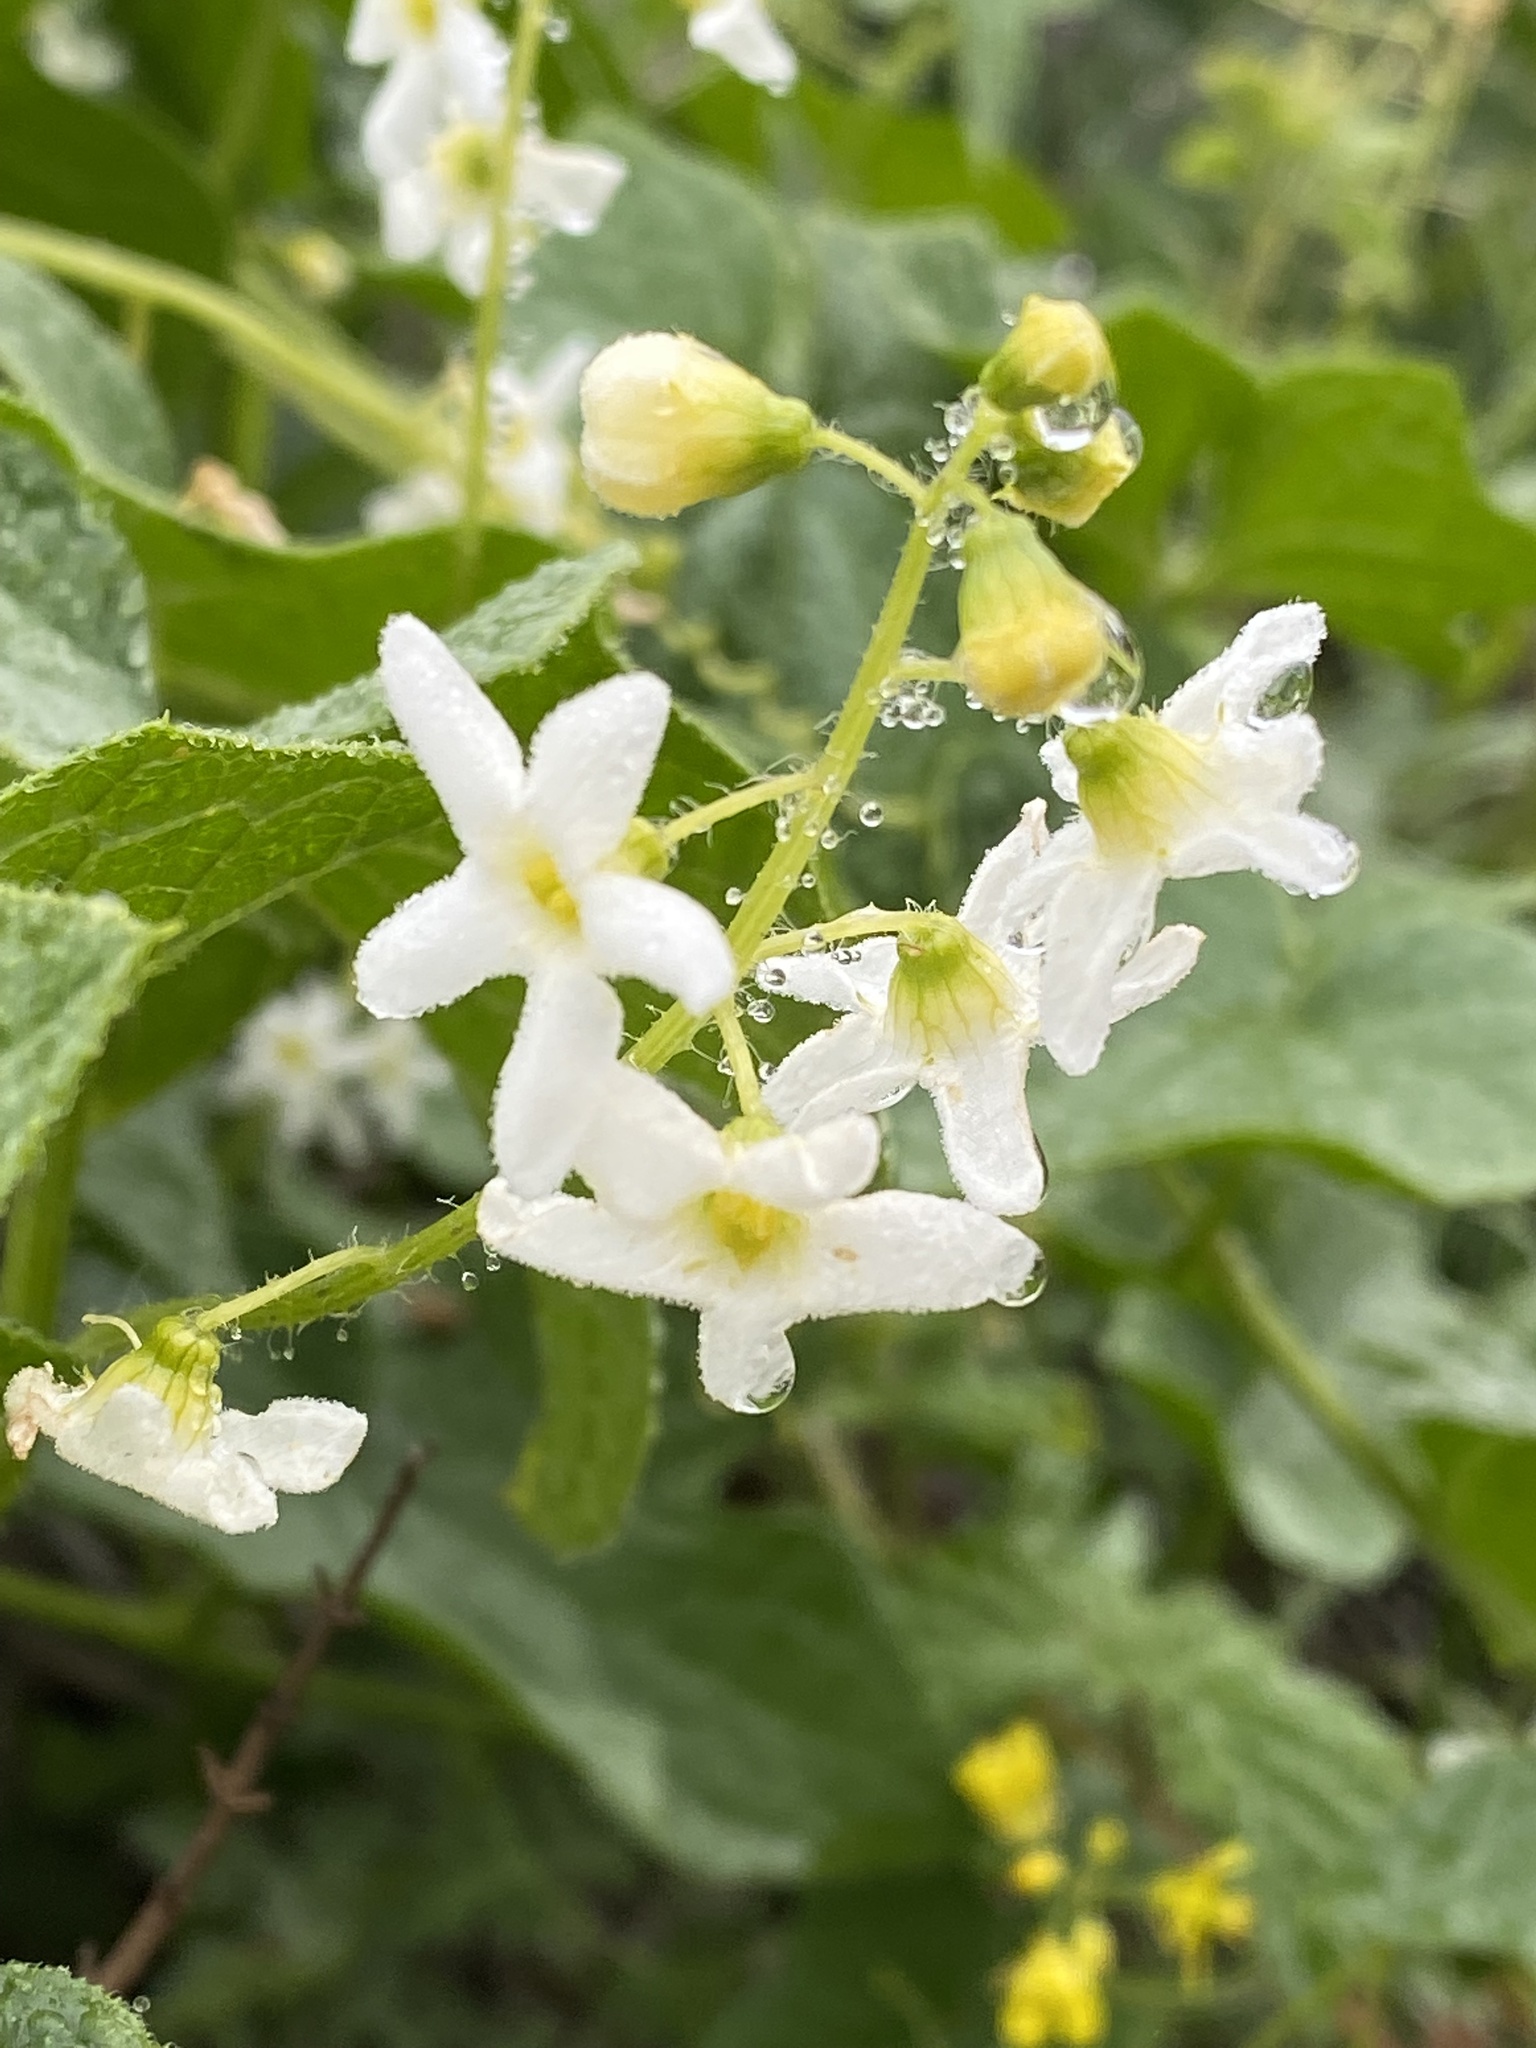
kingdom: Plantae
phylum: Tracheophyta
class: Magnoliopsida
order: Cucurbitales
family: Cucurbitaceae
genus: Marah
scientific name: Marah oregana
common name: Coastal manroot
